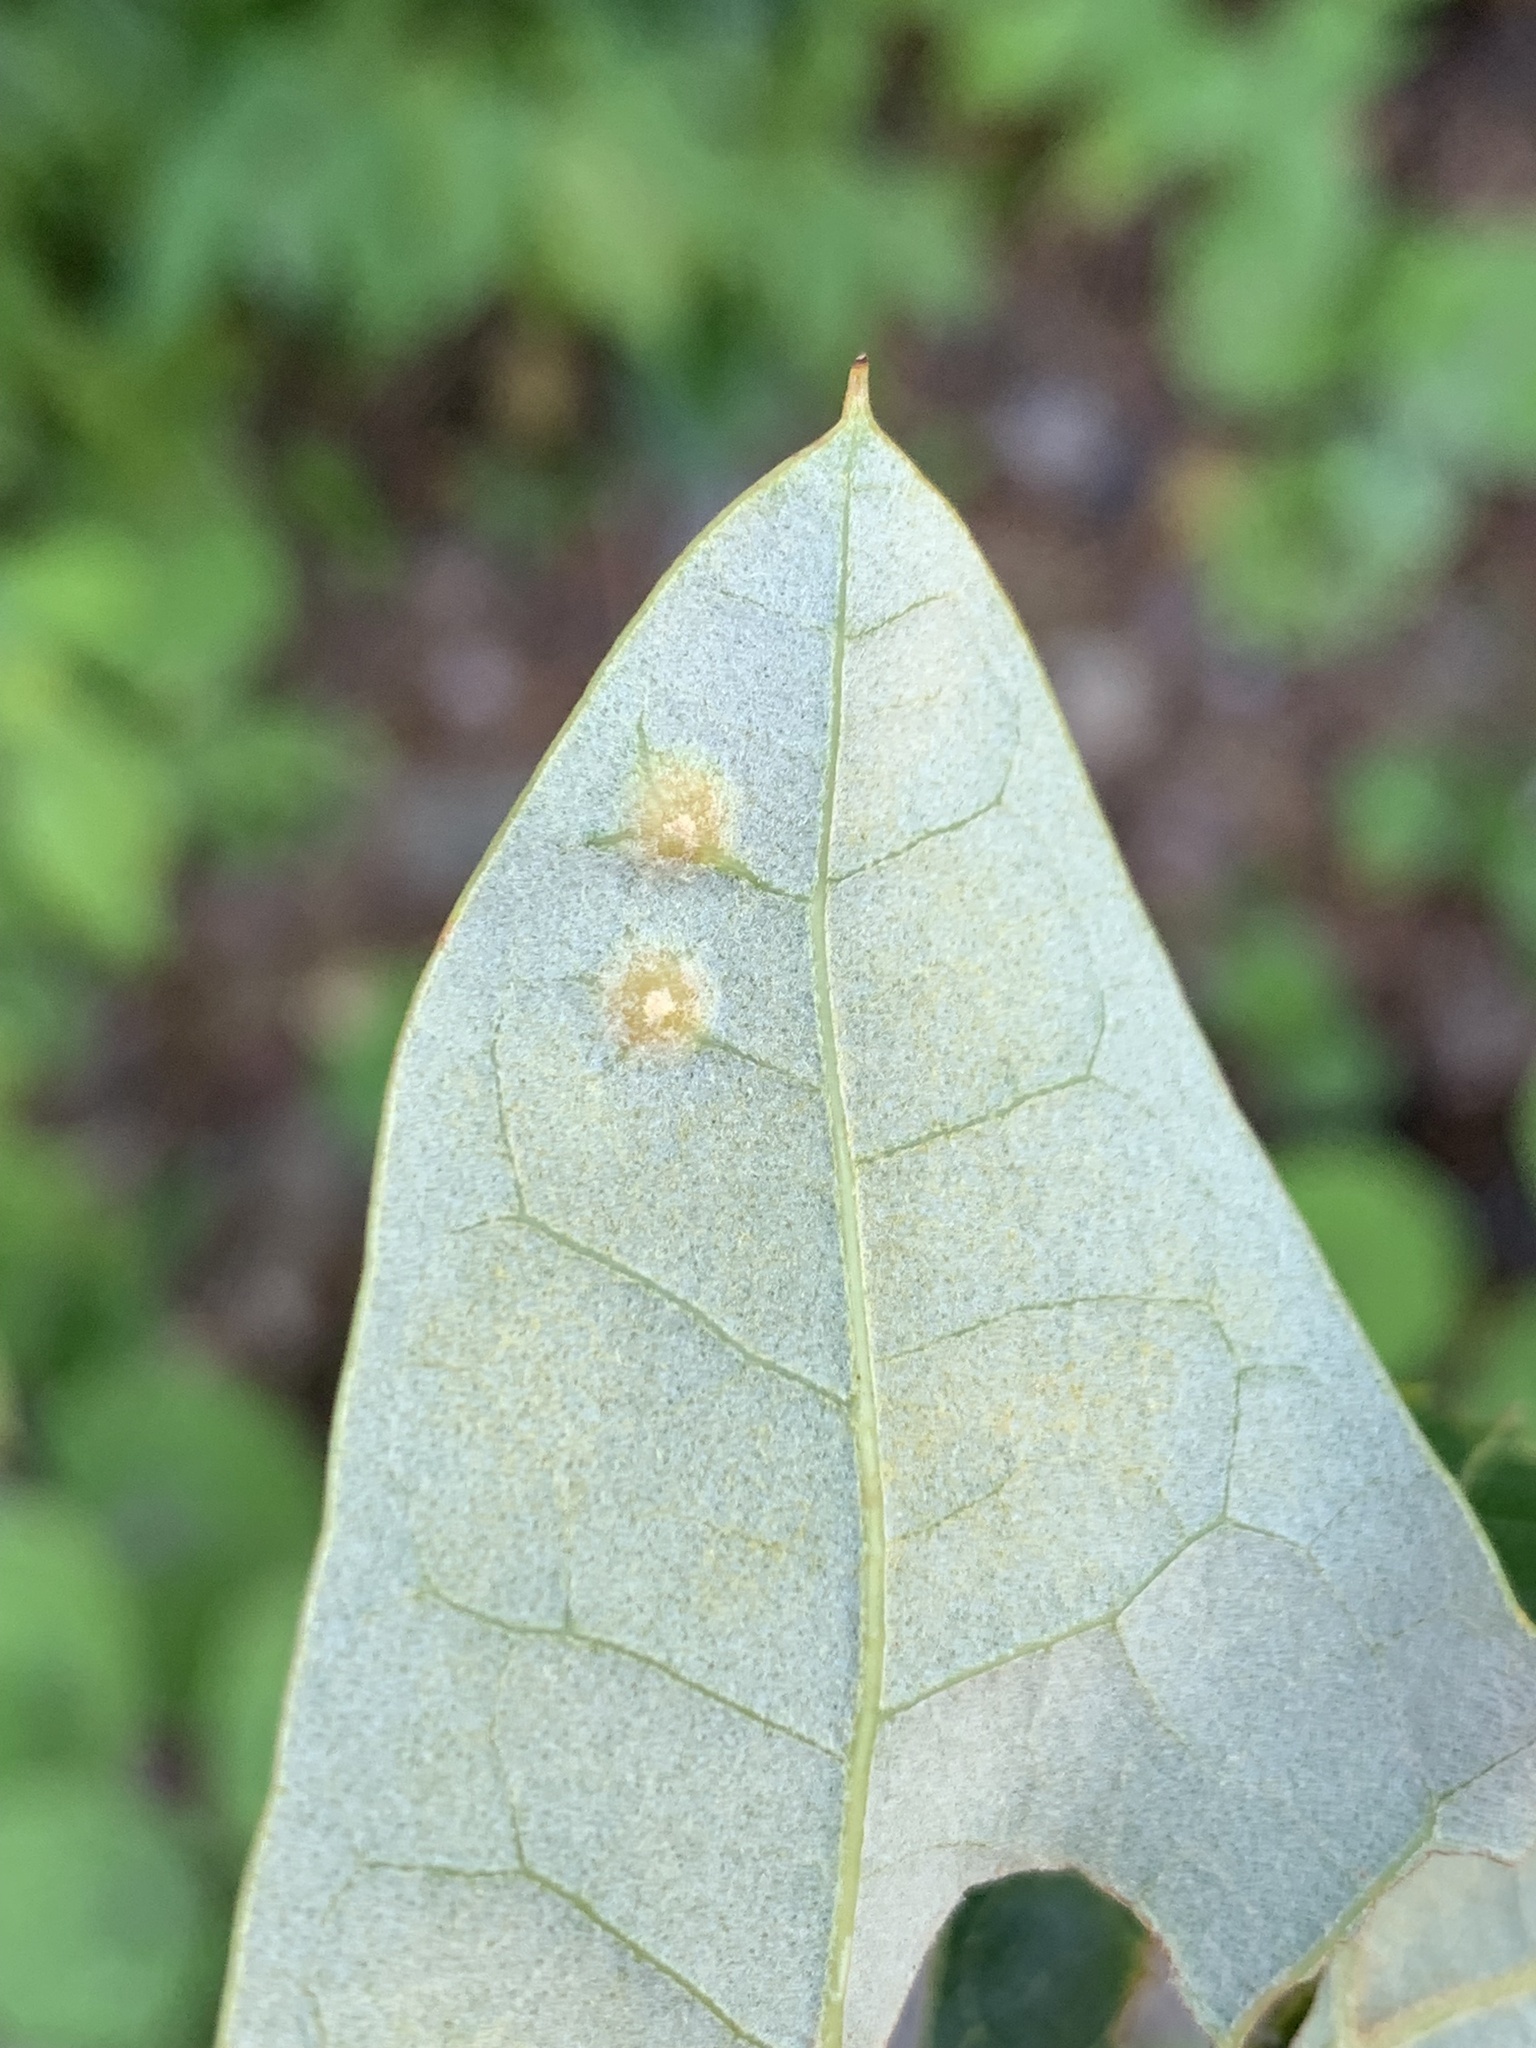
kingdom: Animalia
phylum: Arthropoda
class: Insecta
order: Diptera
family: Cecidomyiidae
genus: Polystepha
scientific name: Polystepha pilulae
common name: Oak leaf gall midge
